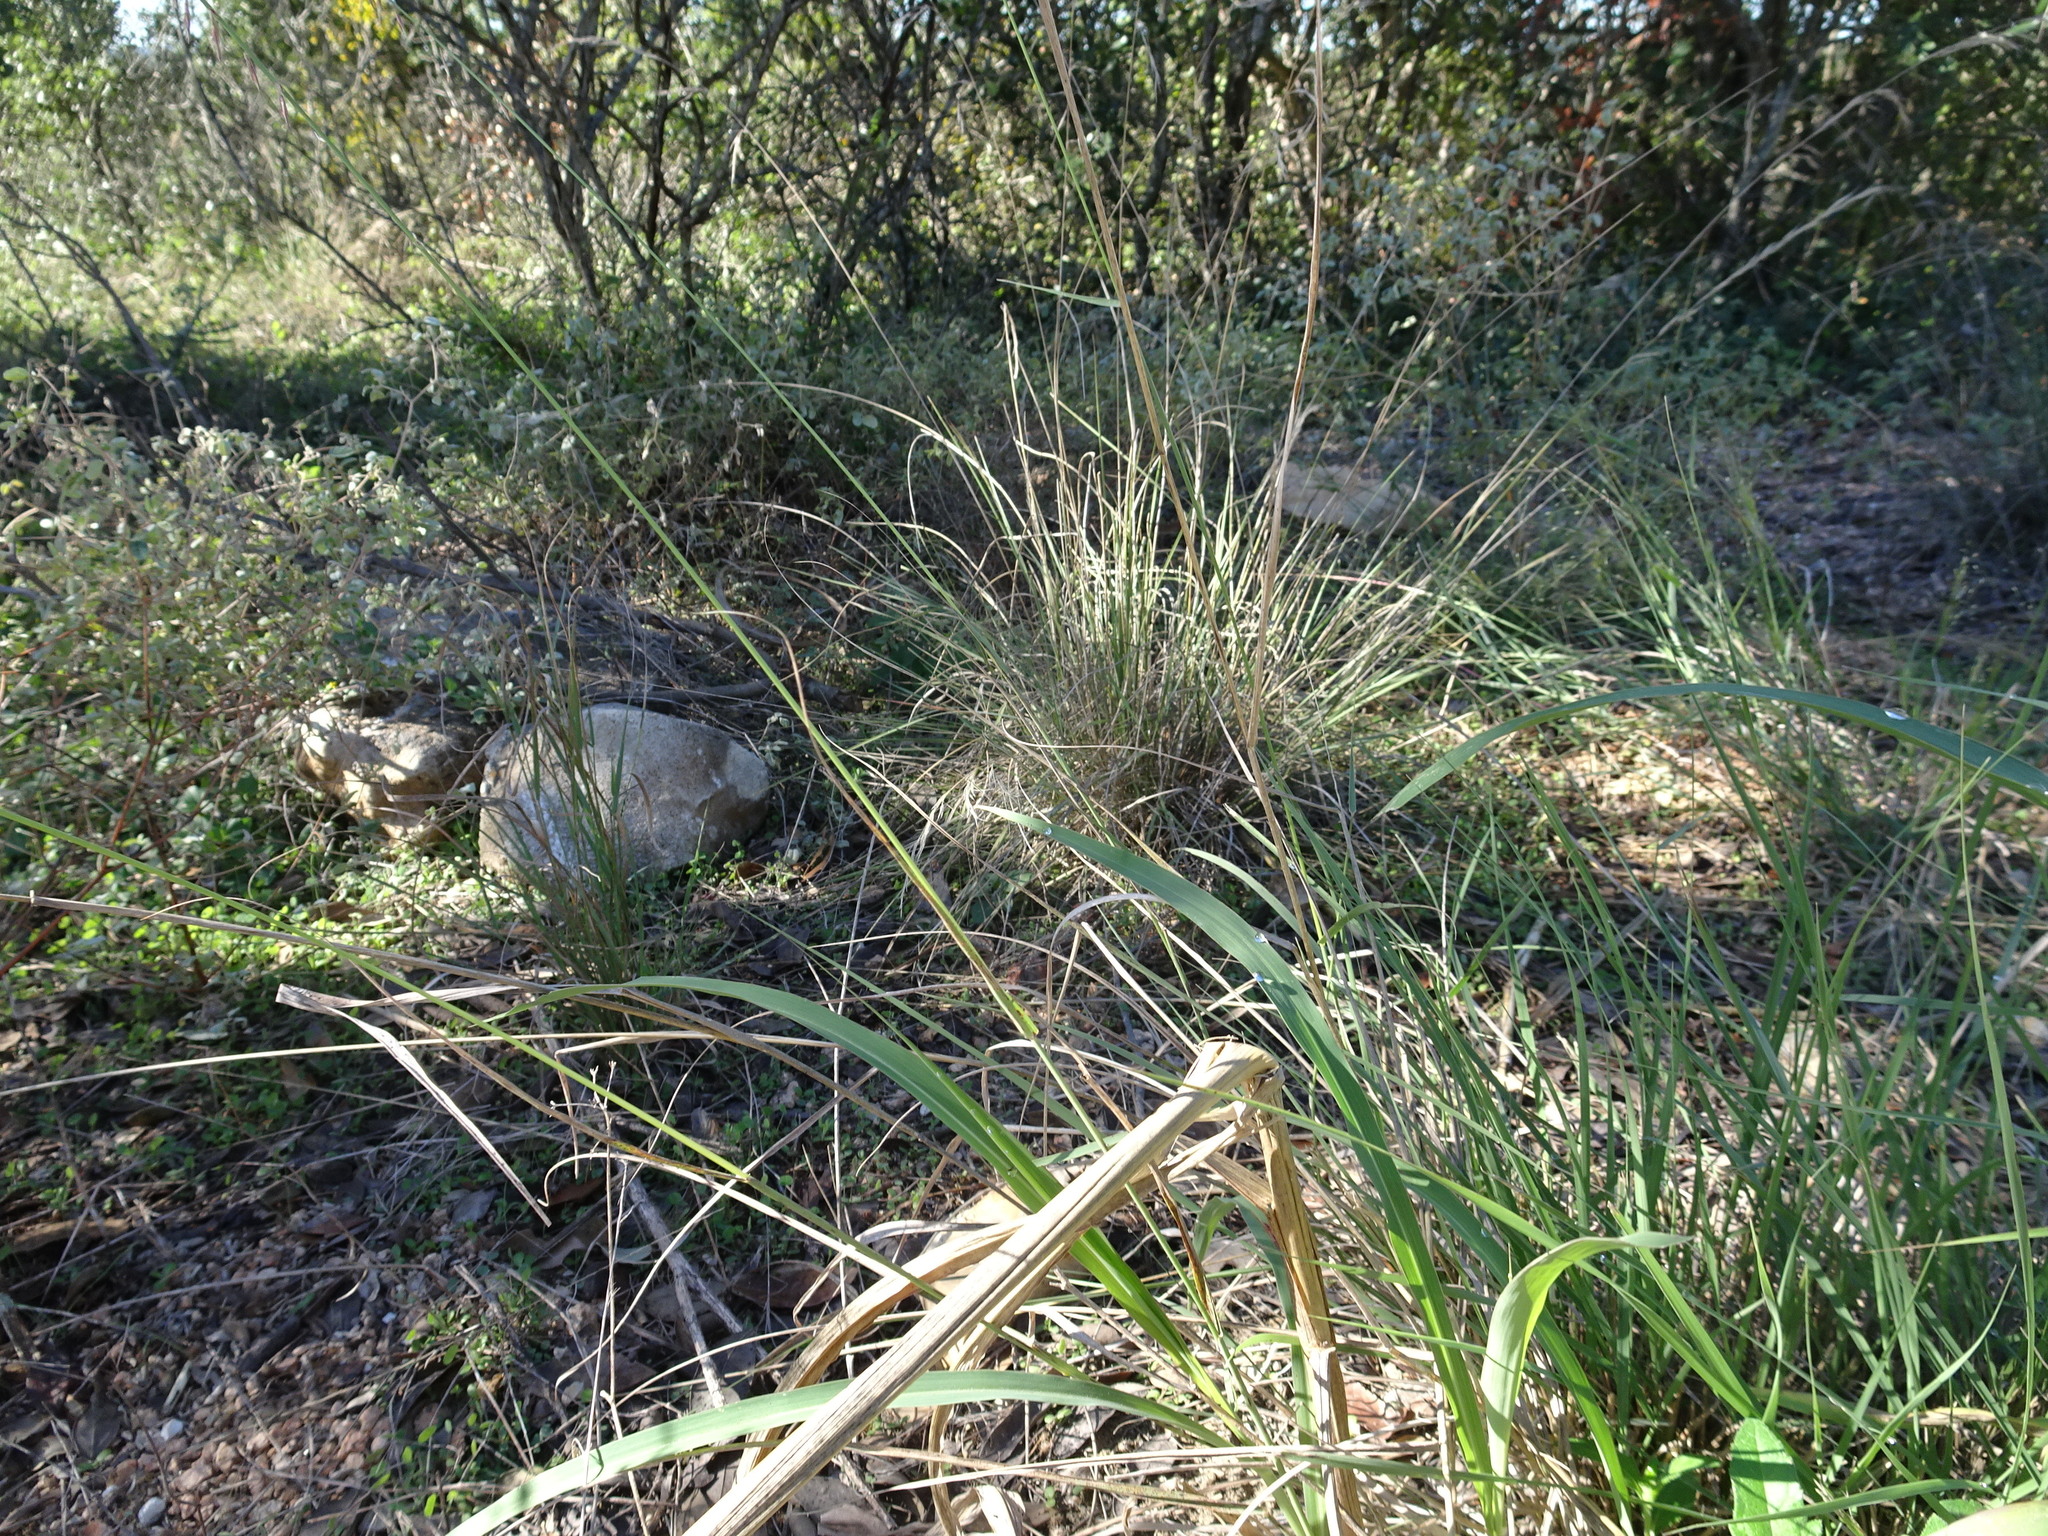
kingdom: Plantae
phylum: Tracheophyta
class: Liliopsida
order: Poales
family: Poaceae
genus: Bouteloua
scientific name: Bouteloua curtipendula
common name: Side-oats grama
